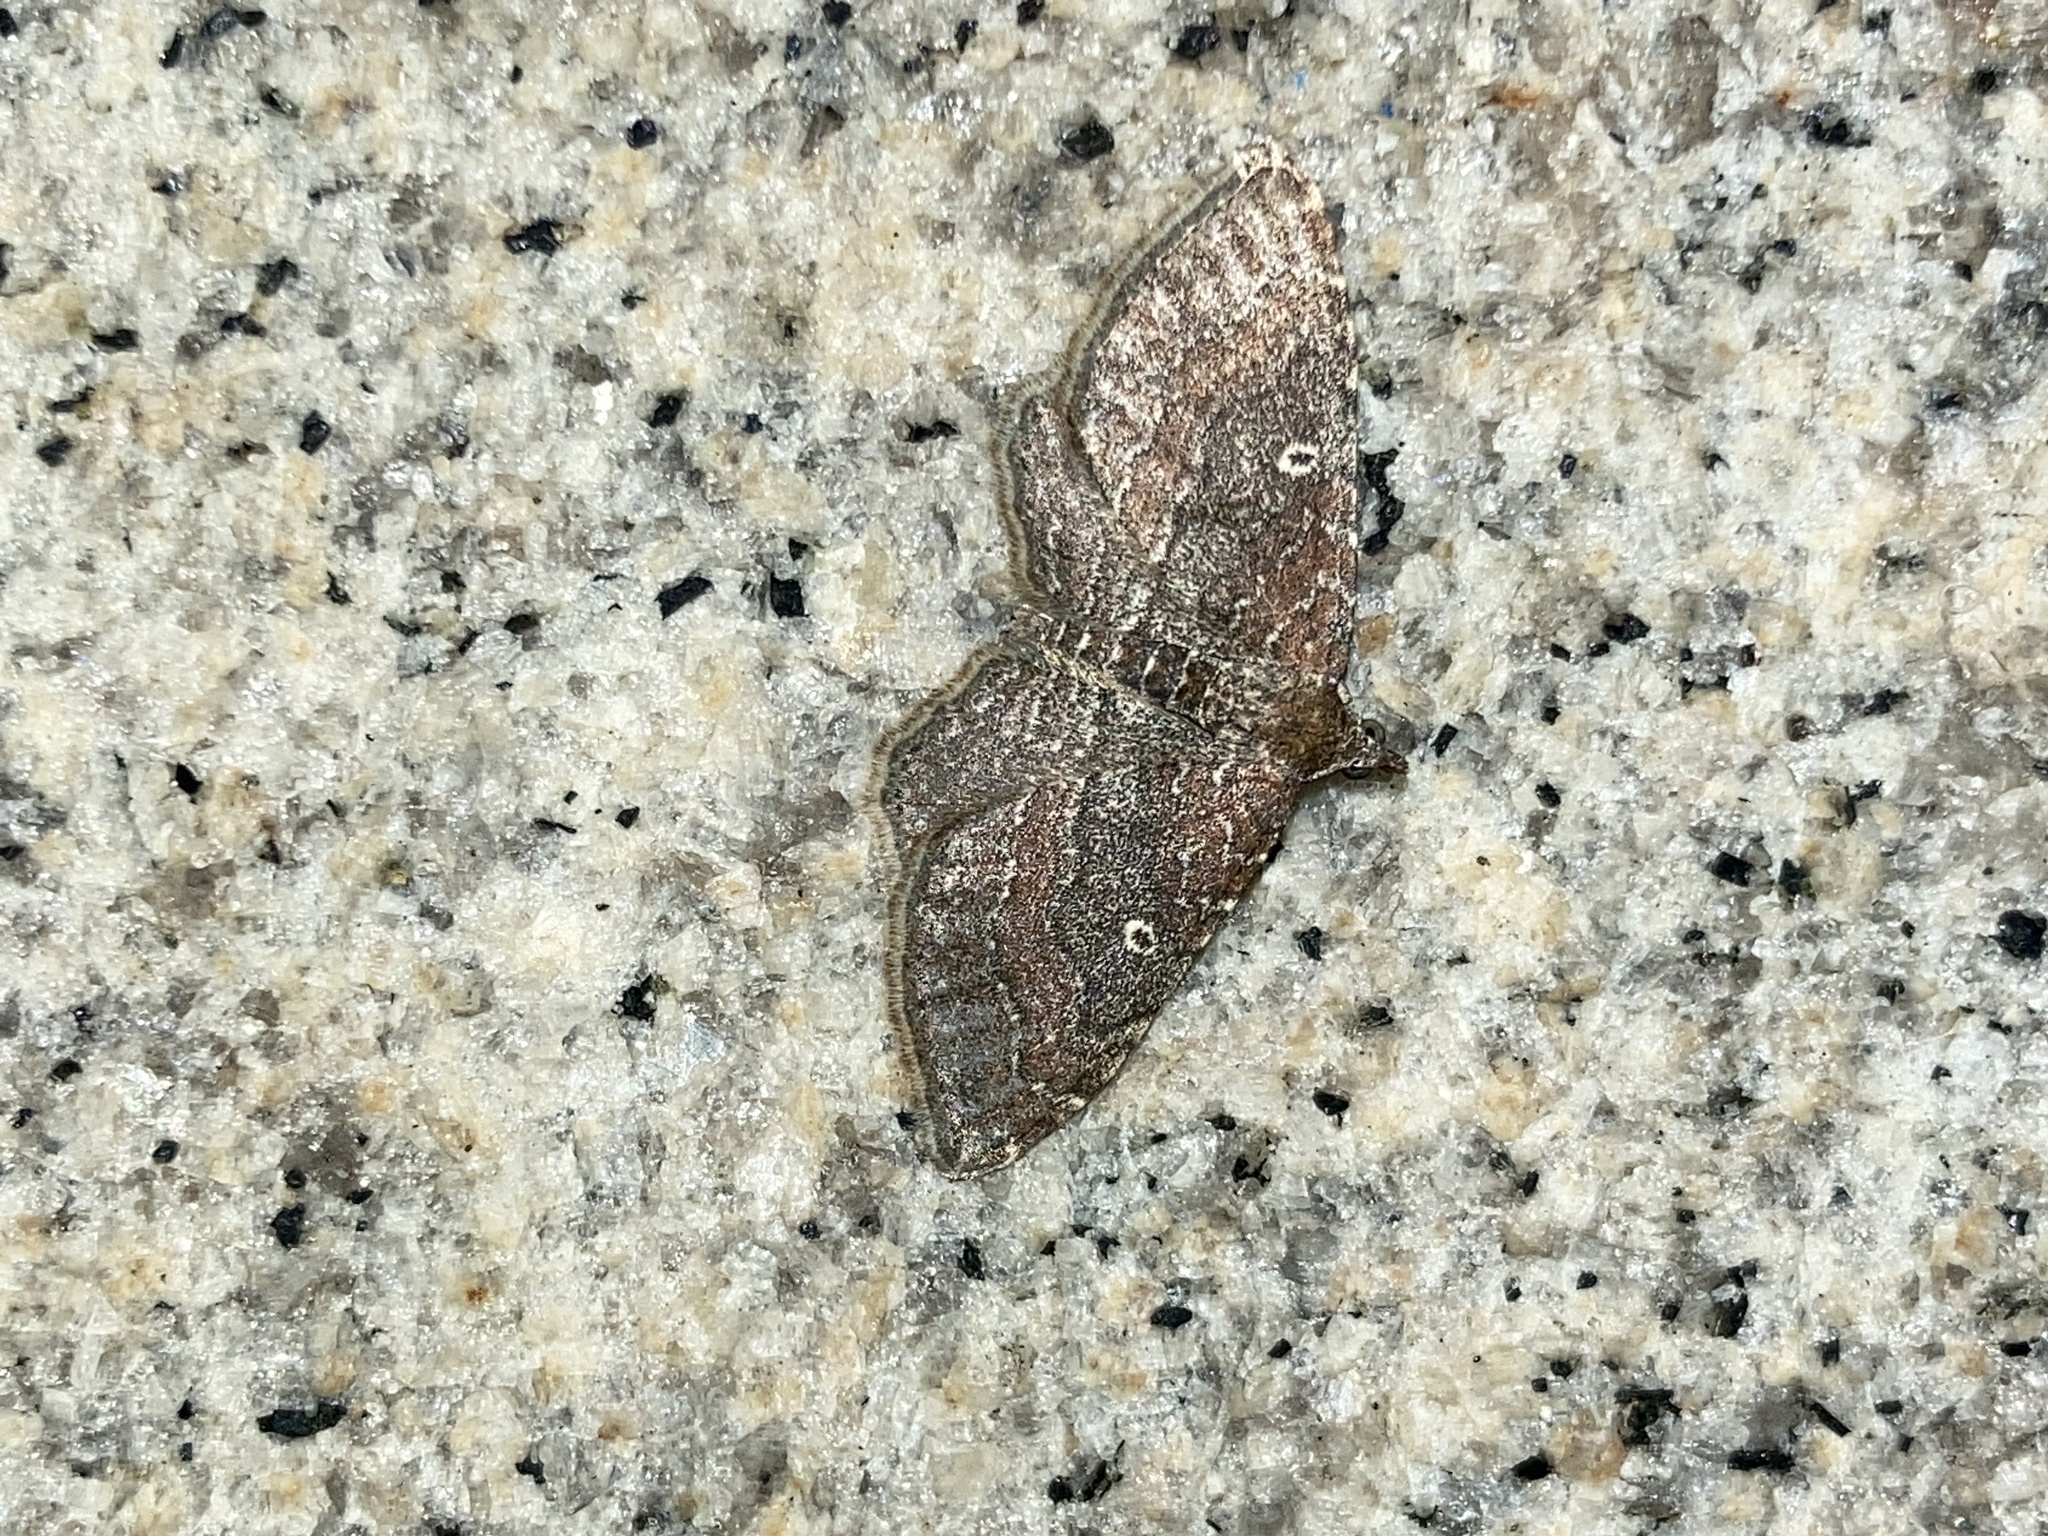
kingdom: Animalia
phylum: Arthropoda
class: Insecta
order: Lepidoptera
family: Geometridae
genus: Orthonama
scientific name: Orthonama obstipata
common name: The gem
